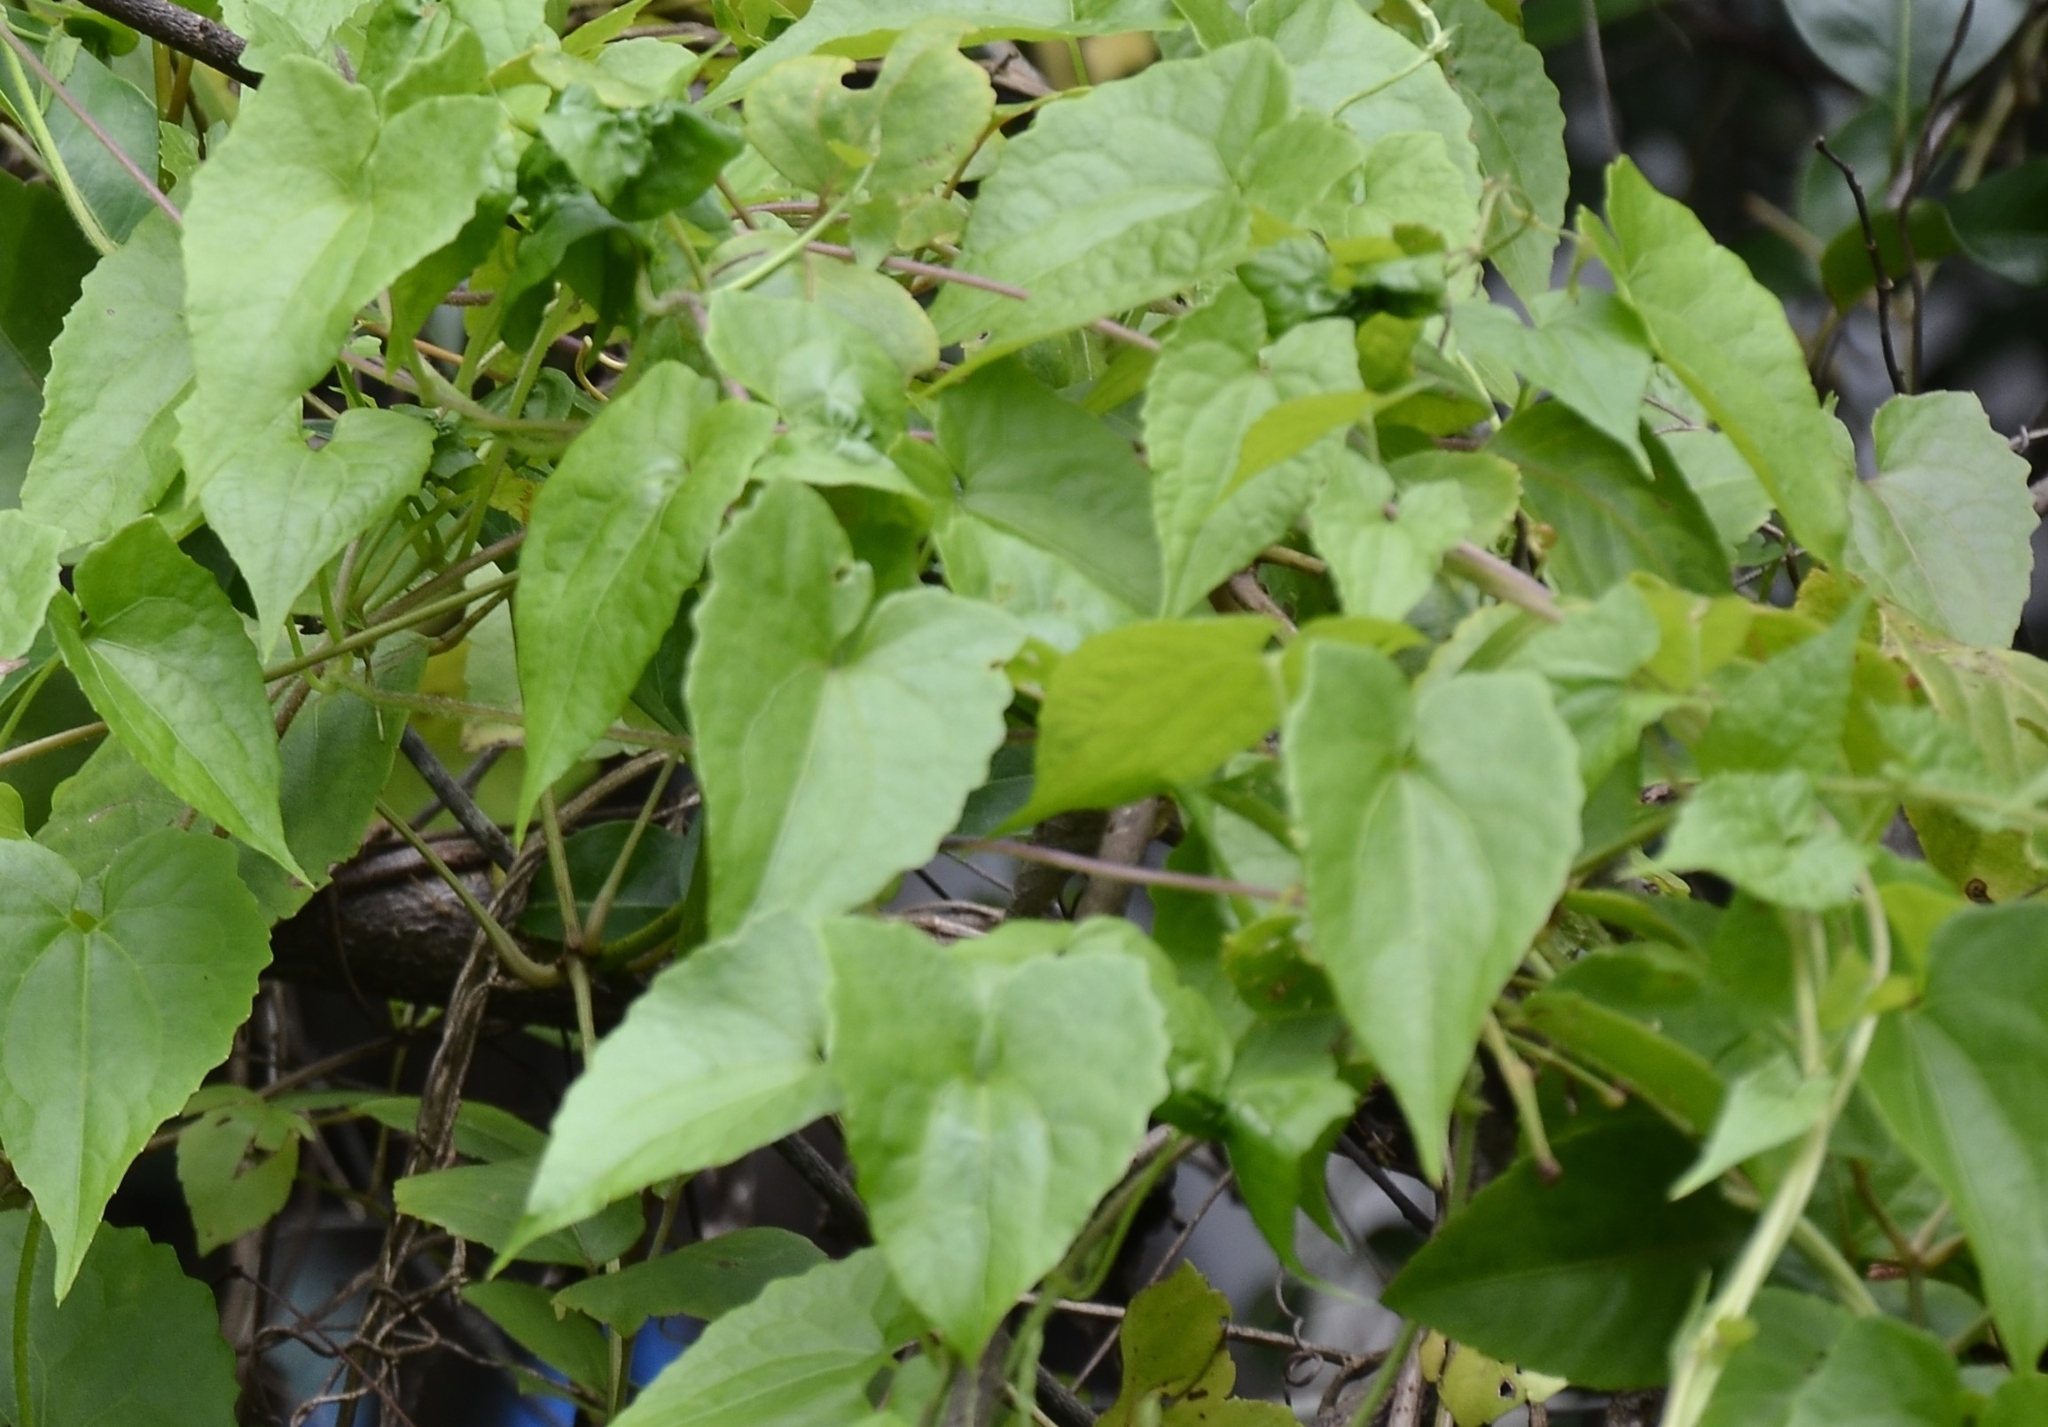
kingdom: Plantae
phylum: Tracheophyta
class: Magnoliopsida
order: Asterales
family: Asteraceae
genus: Mikania
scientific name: Mikania micrantha
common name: Mile-a-minute
